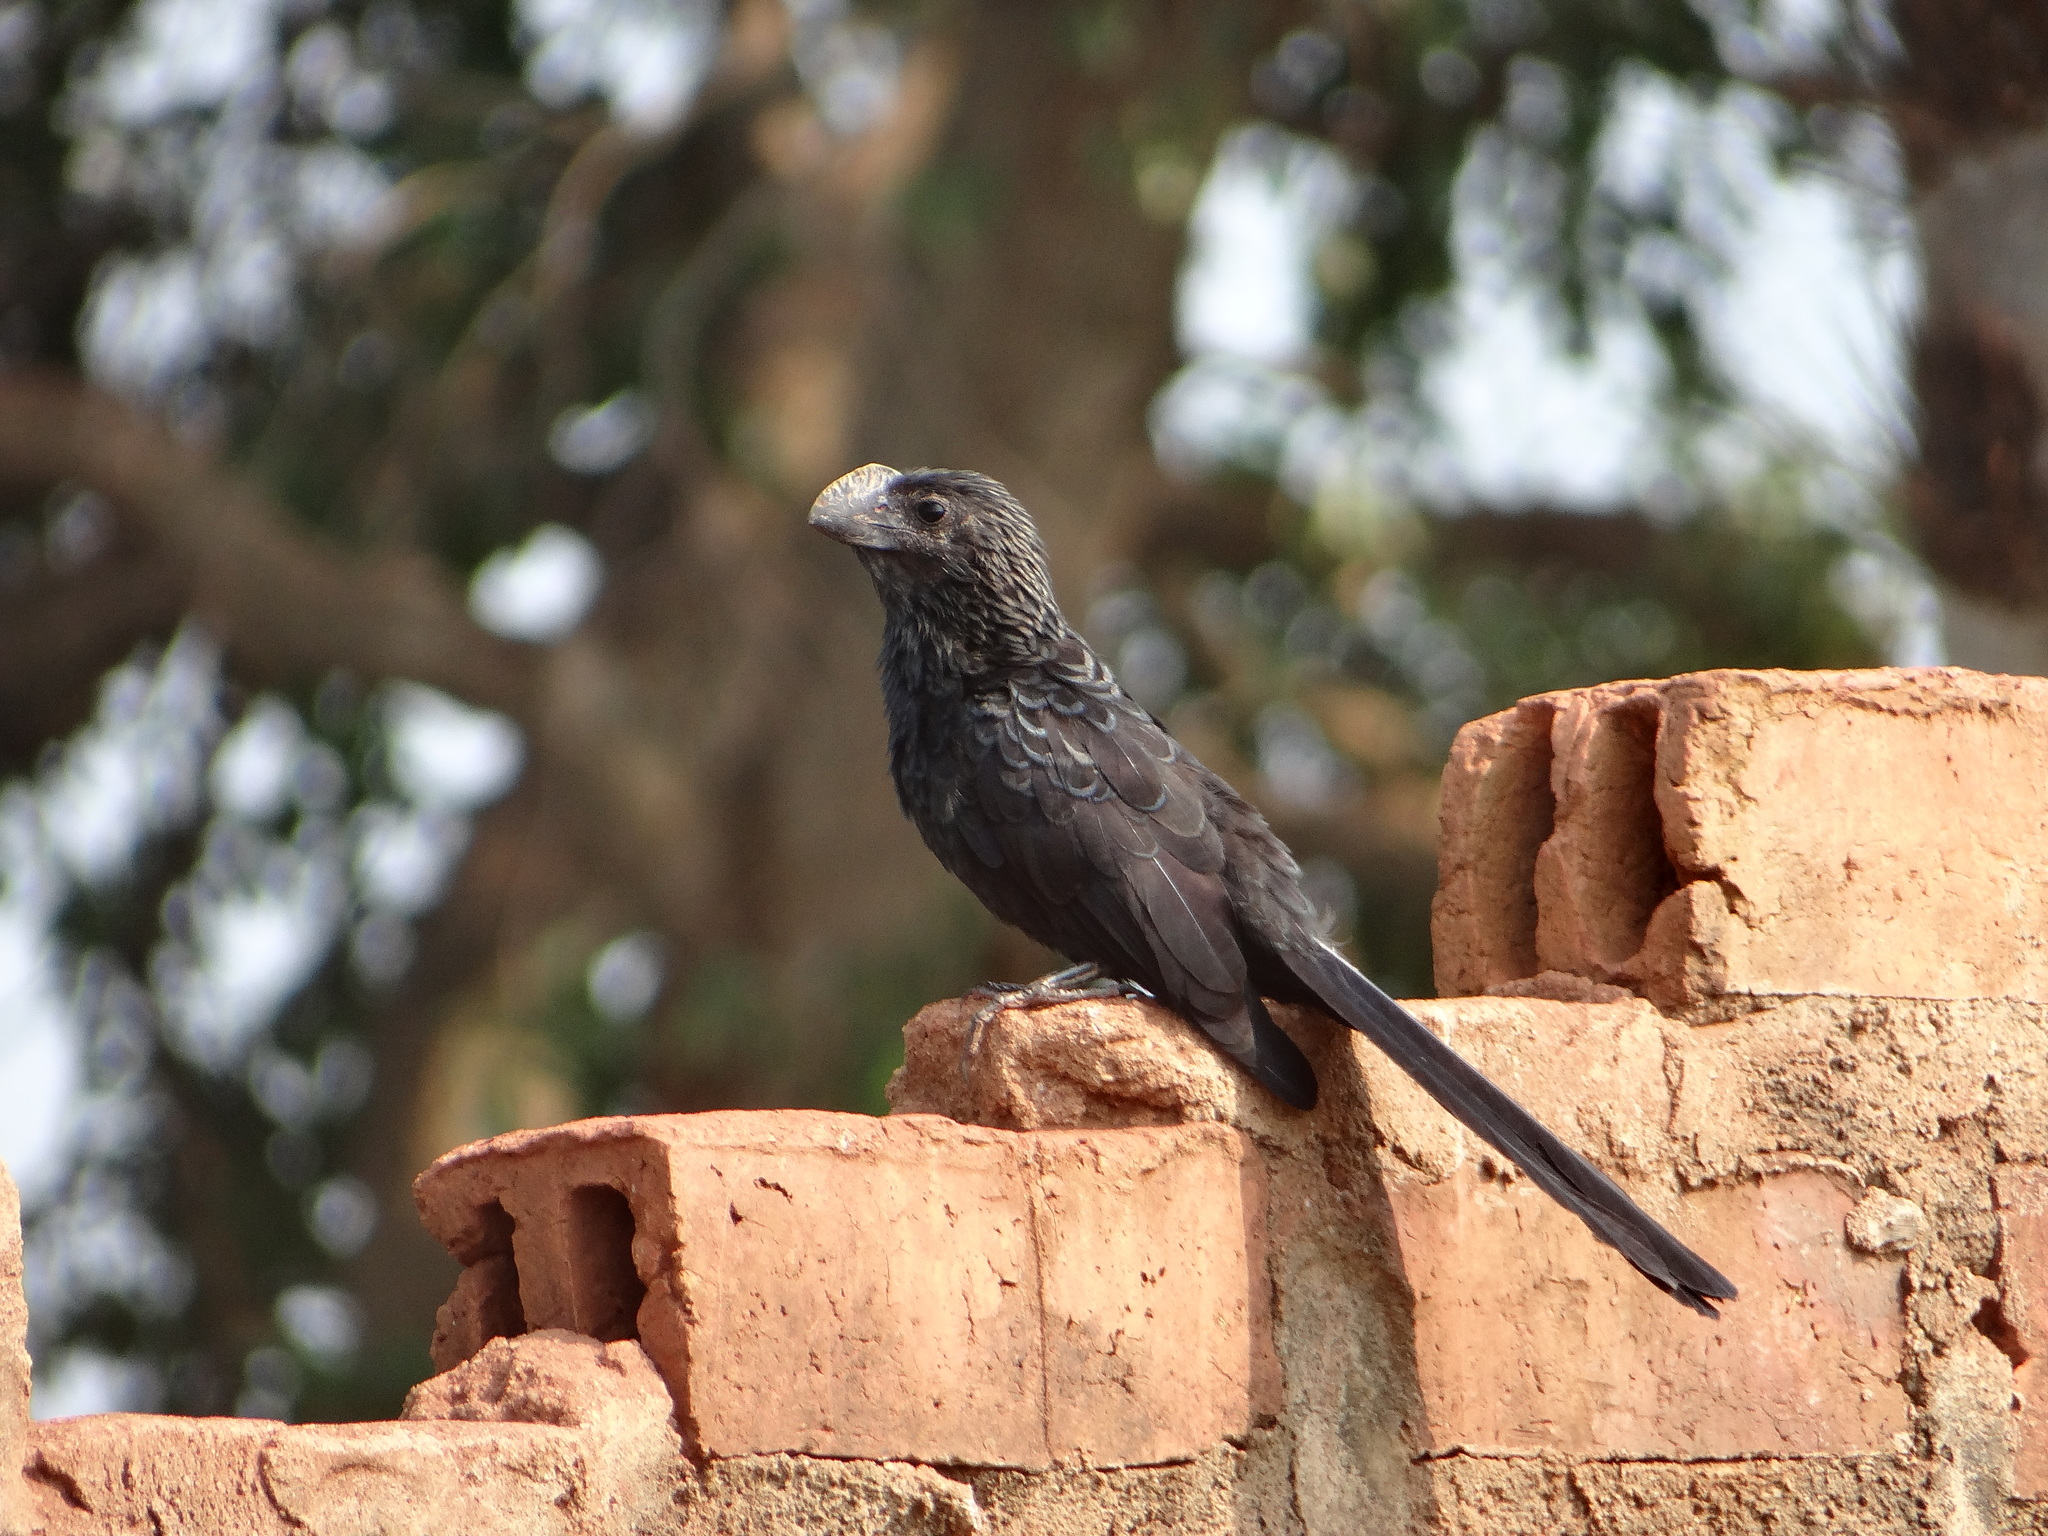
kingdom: Animalia
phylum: Chordata
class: Aves
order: Cuculiformes
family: Cuculidae
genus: Crotophaga
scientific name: Crotophaga ani
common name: Smooth-billed ani
